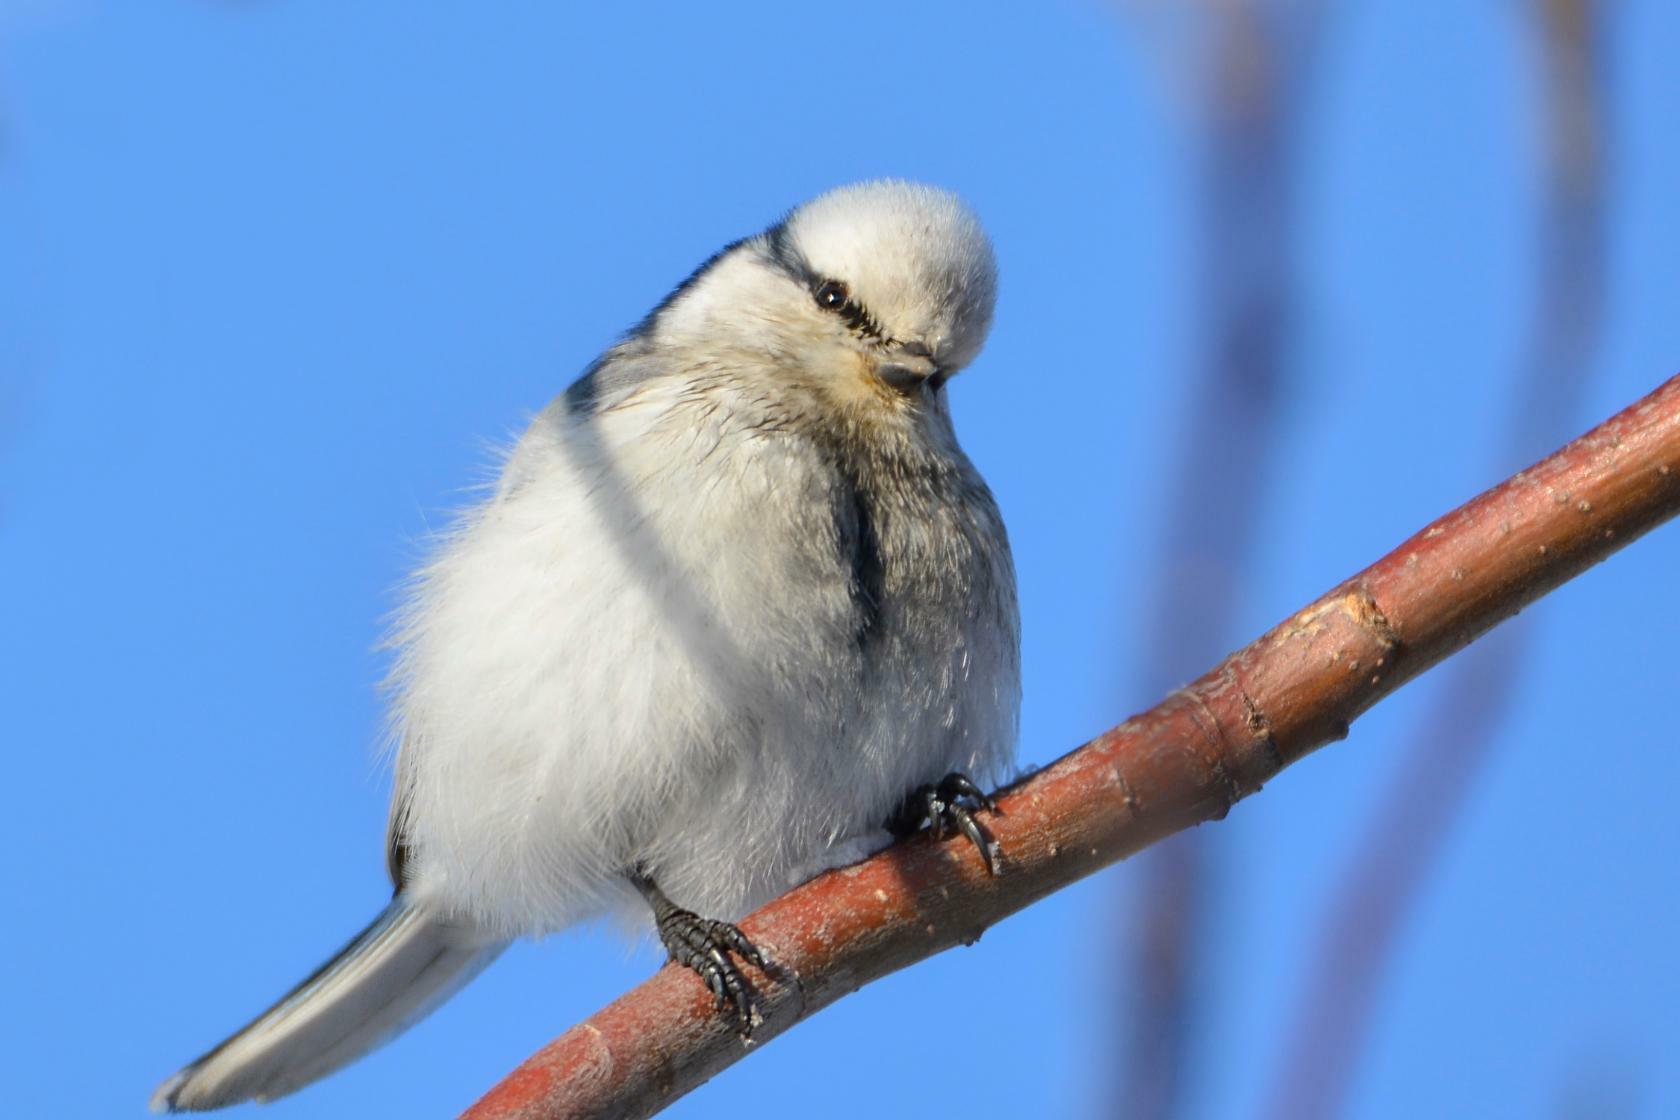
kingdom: Animalia
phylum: Chordata
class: Aves
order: Passeriformes
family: Paridae
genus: Cyanistes
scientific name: Cyanistes cyanus
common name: Azure tit
